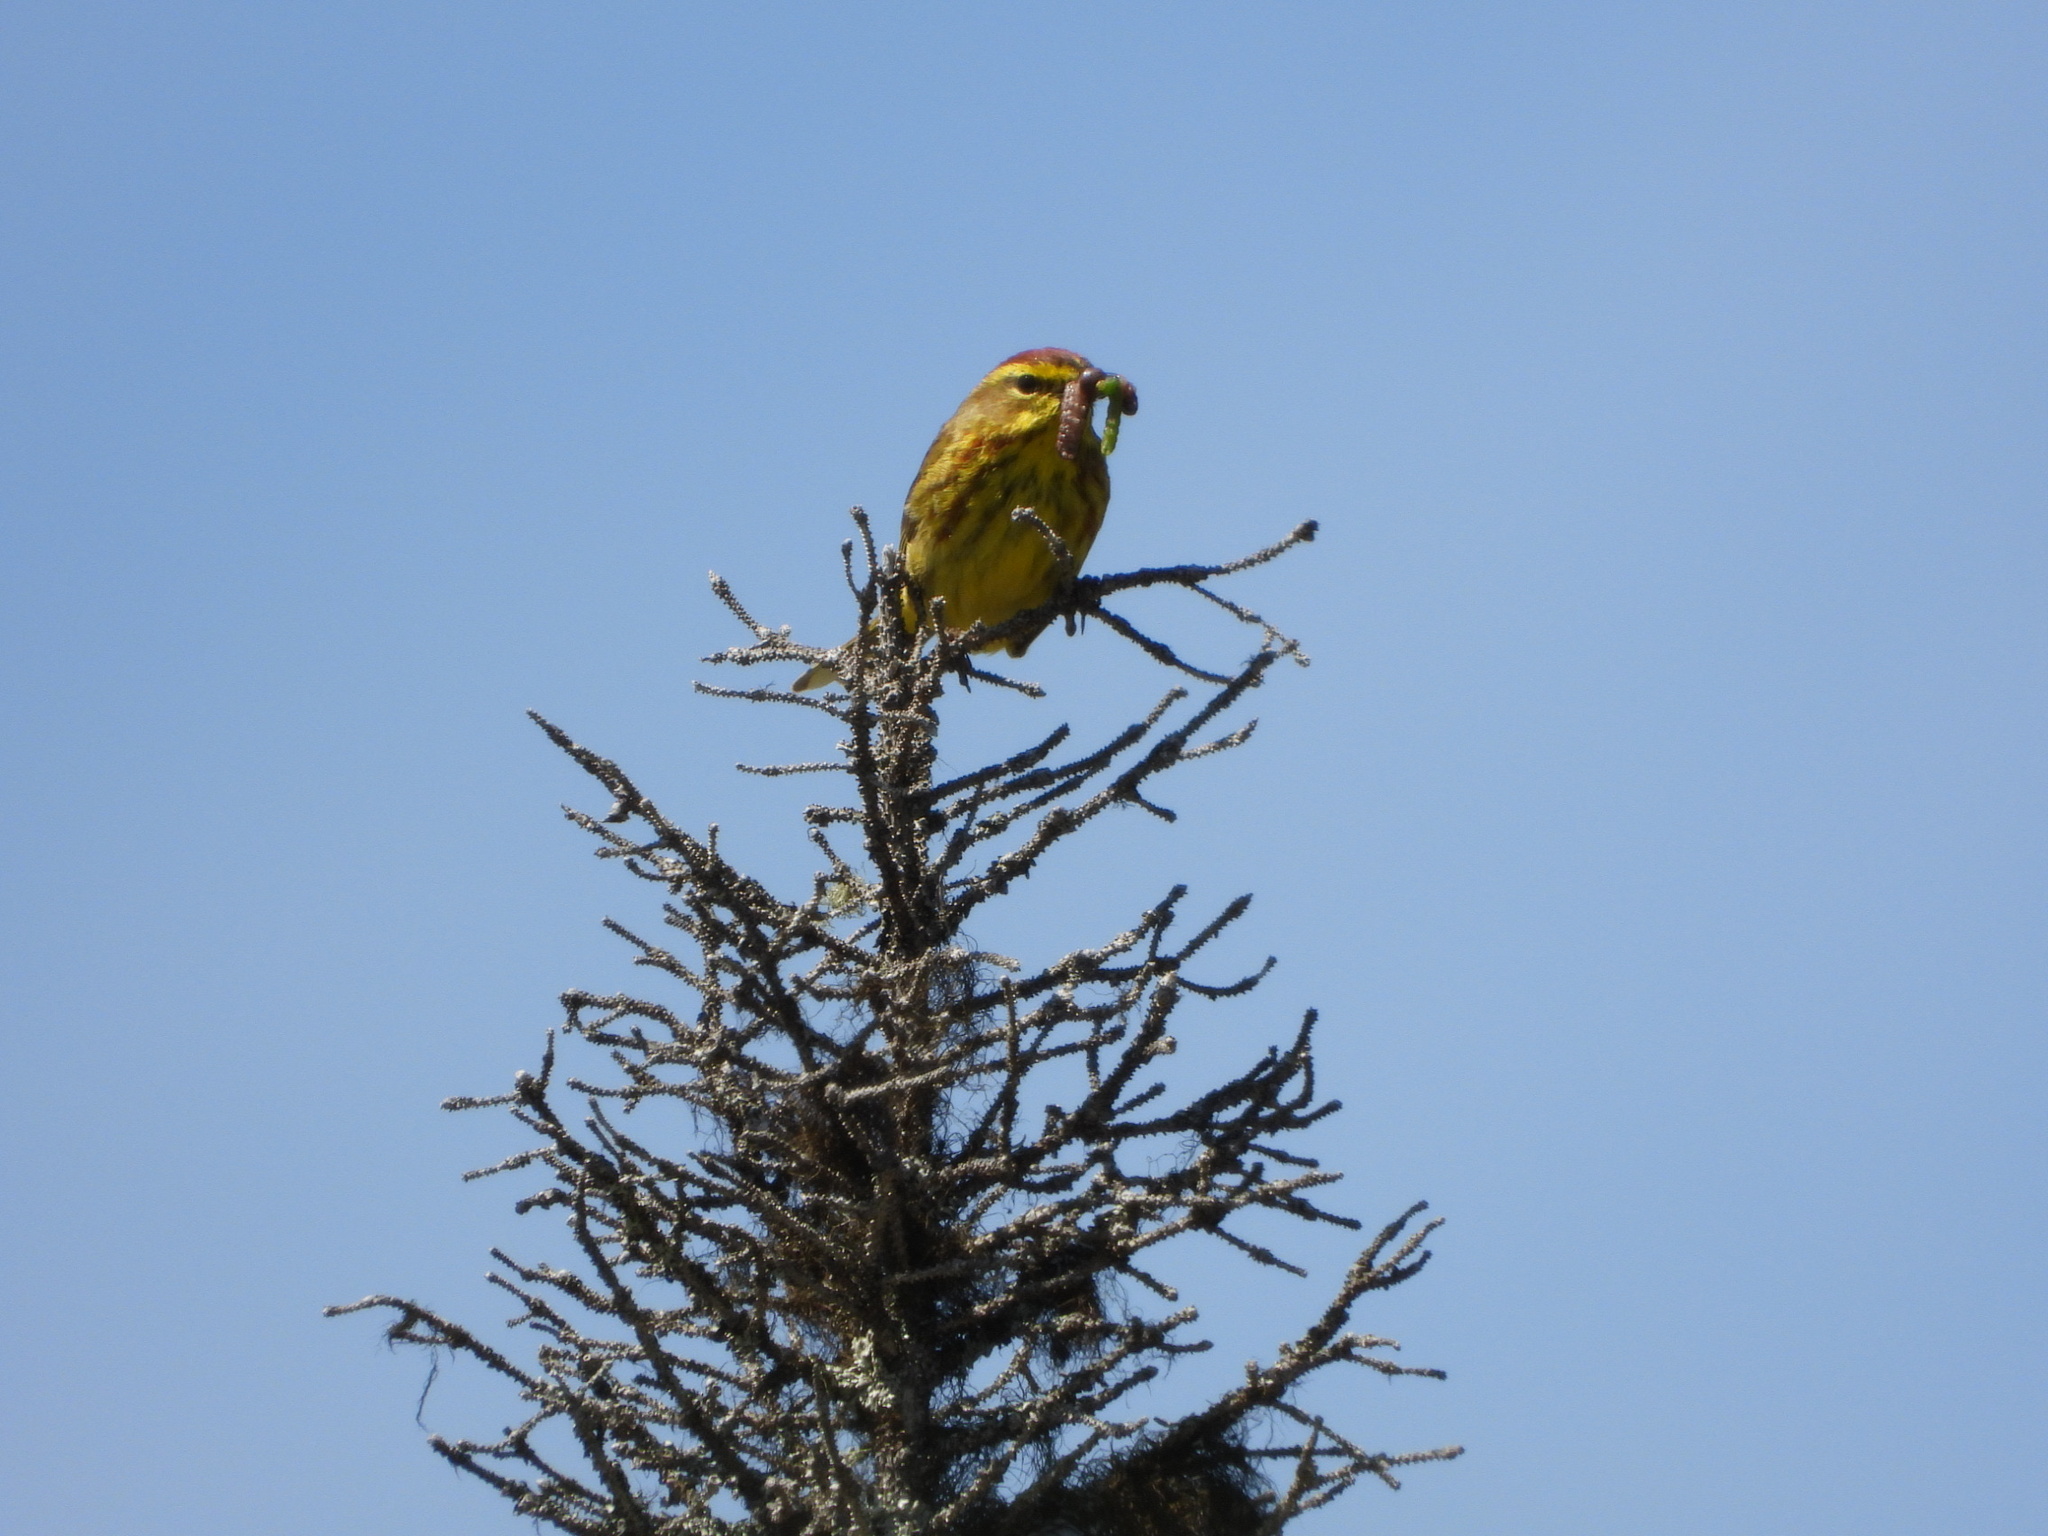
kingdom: Animalia
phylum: Chordata
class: Aves
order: Passeriformes
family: Parulidae
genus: Setophaga
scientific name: Setophaga palmarum
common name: Palm warbler
